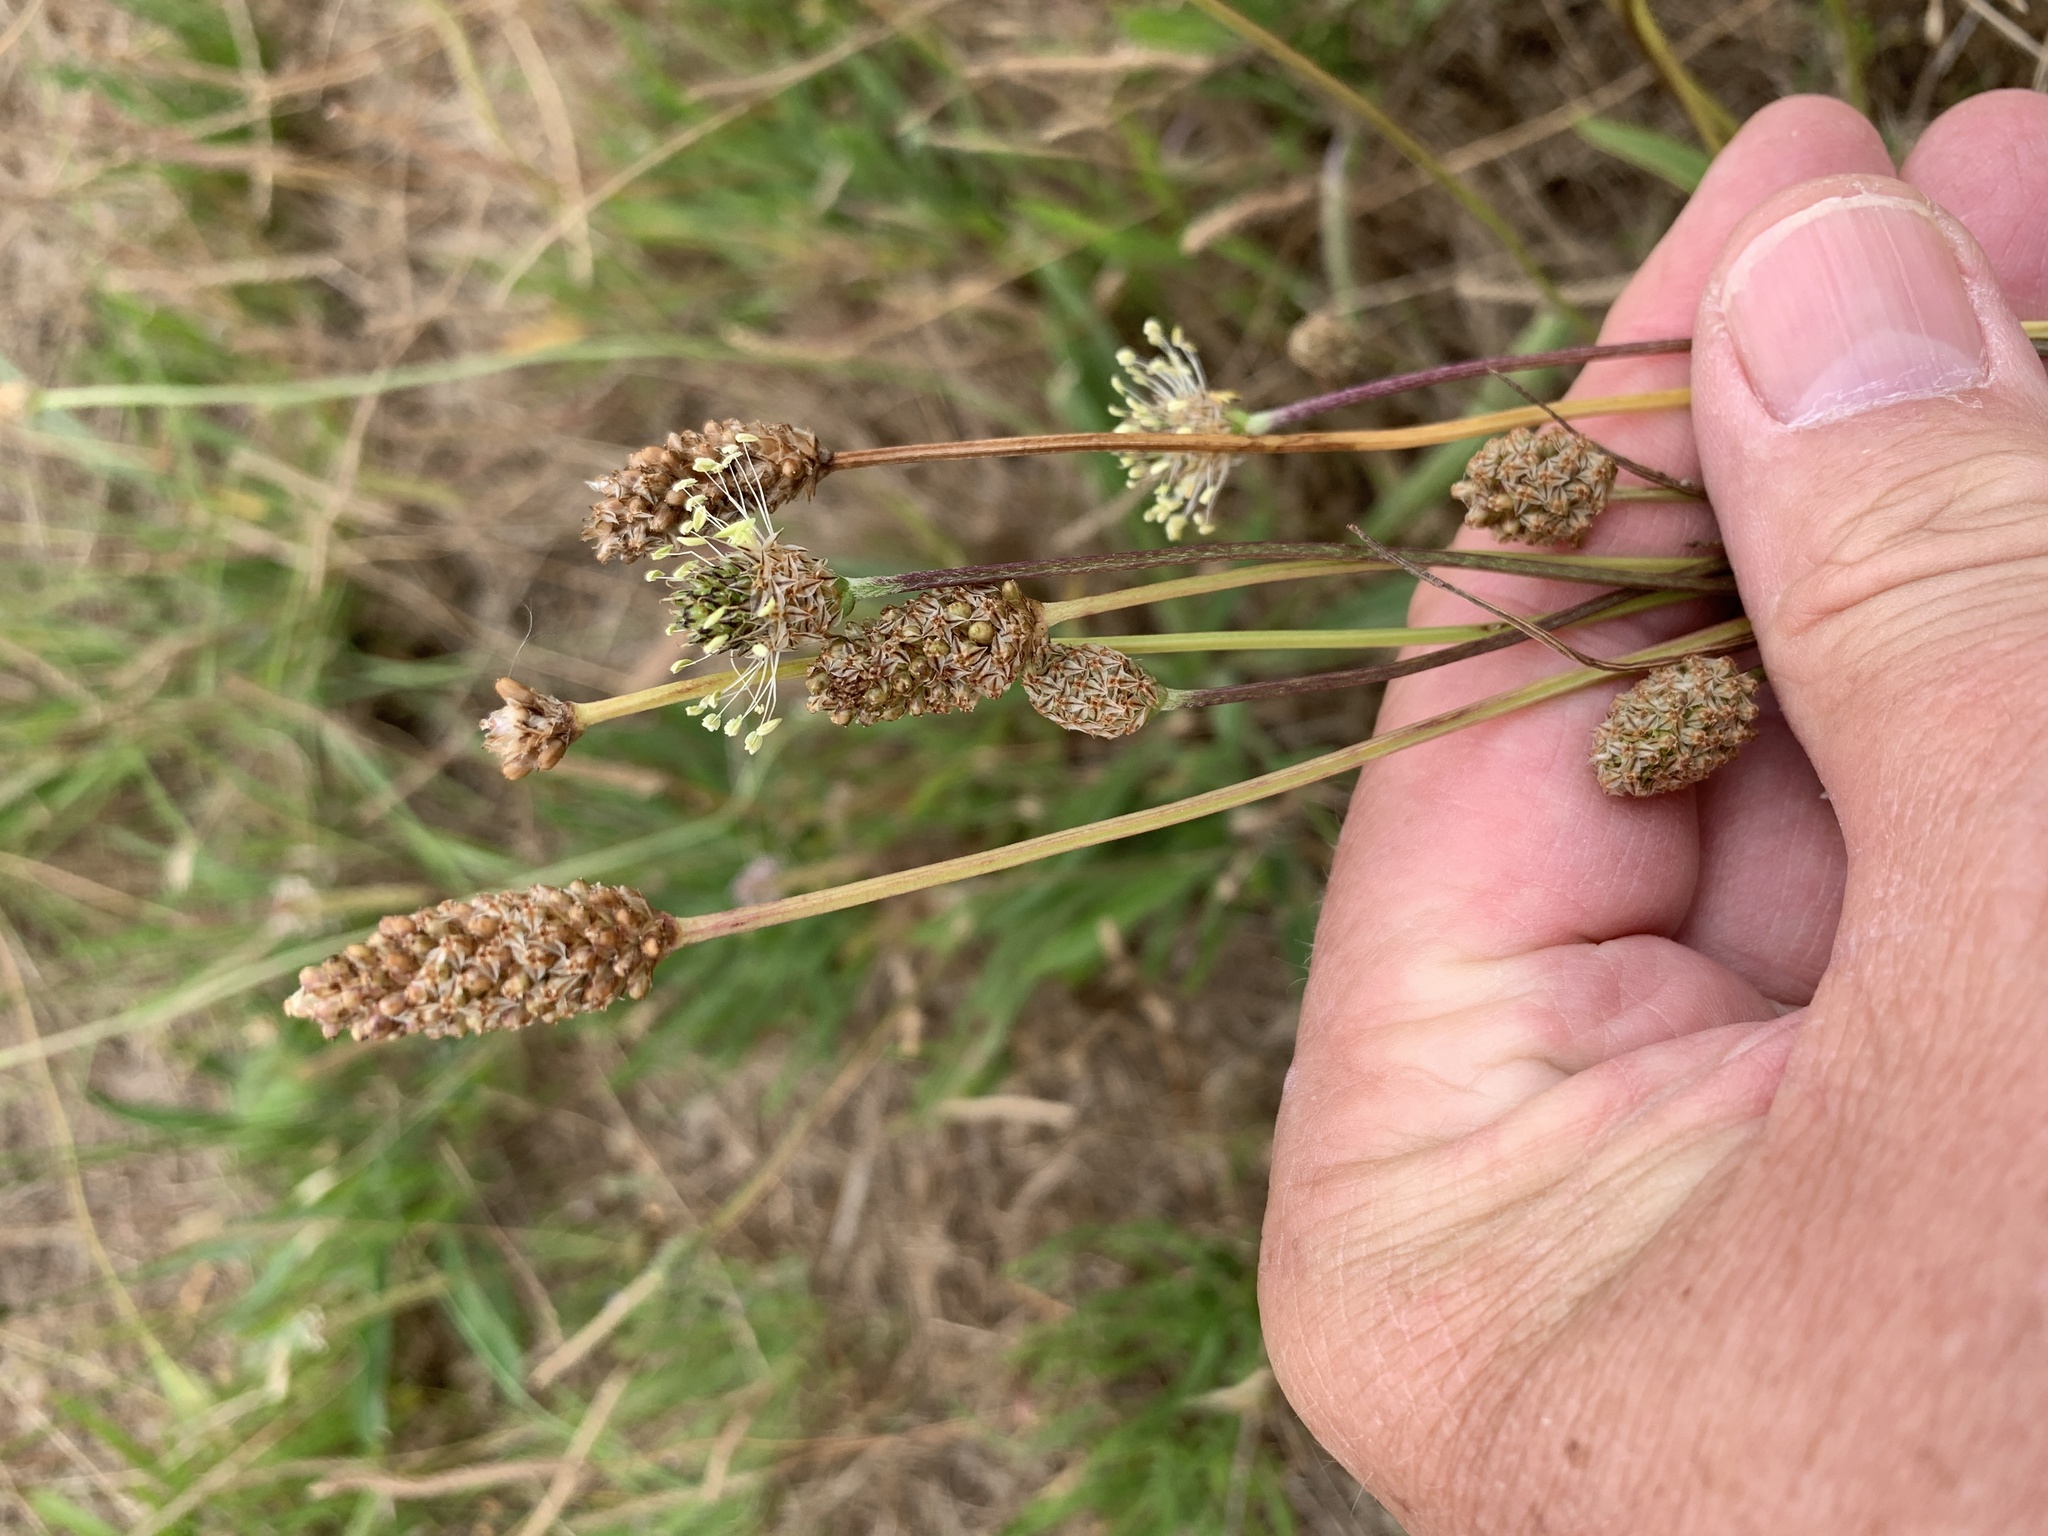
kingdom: Plantae
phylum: Tracheophyta
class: Magnoliopsida
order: Lamiales
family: Plantaginaceae
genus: Plantago
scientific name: Plantago lanceolata
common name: Ribwort plantain
